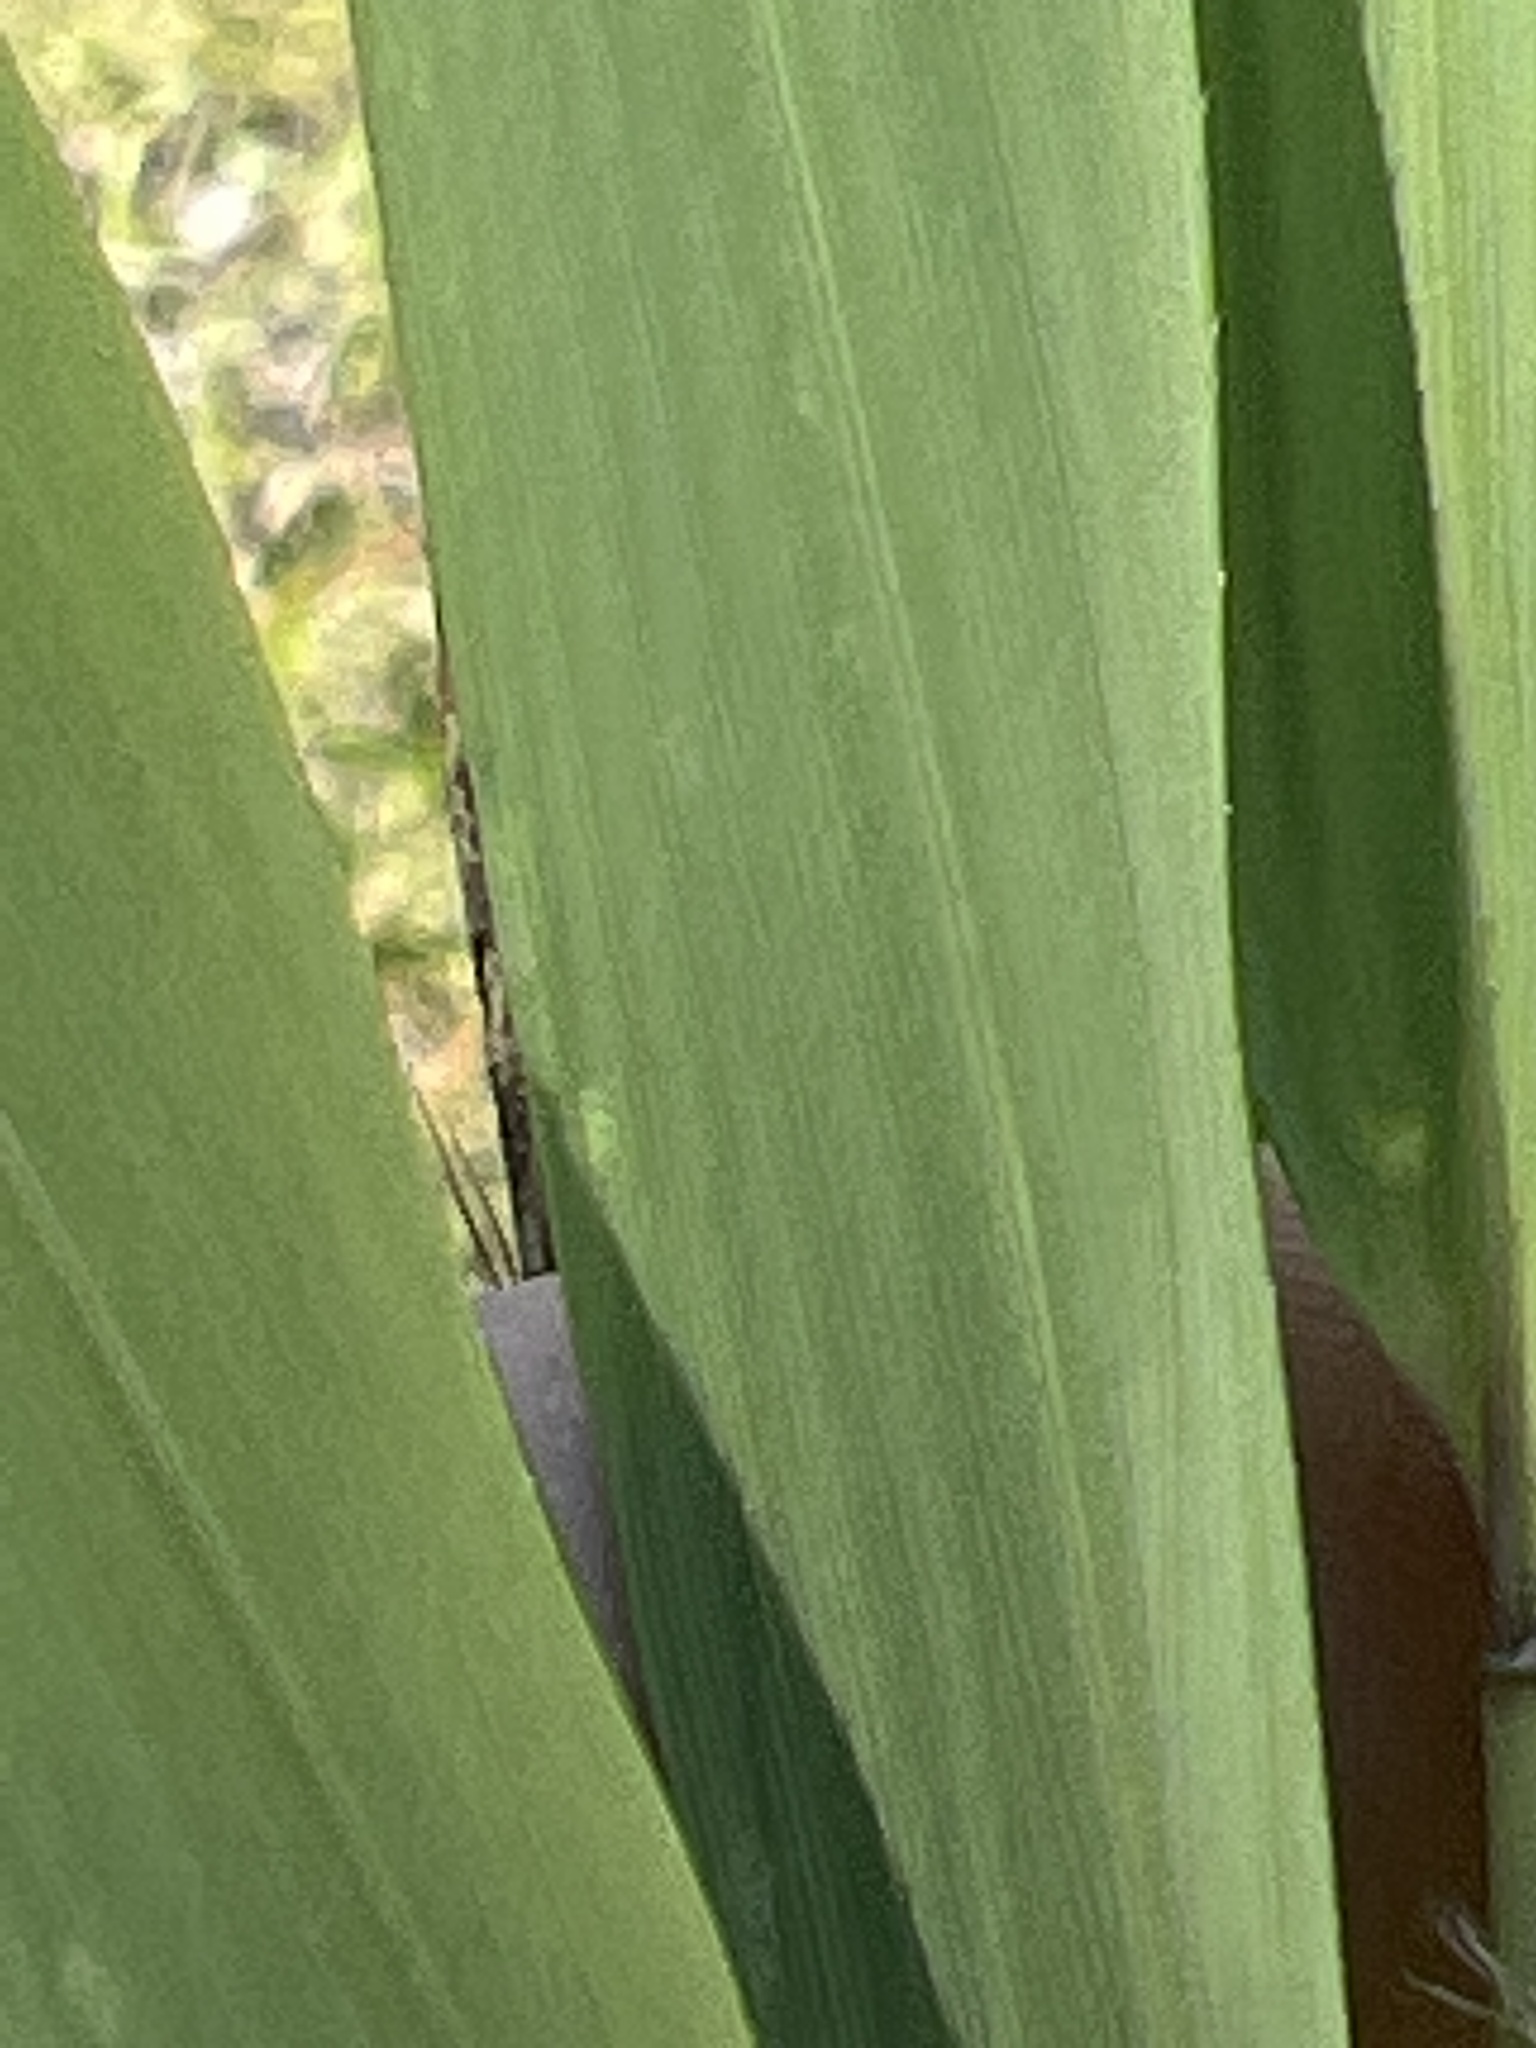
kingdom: Plantae
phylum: Tracheophyta
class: Liliopsida
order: Poales
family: Poaceae
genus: Arundinaria
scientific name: Arundinaria tecta
